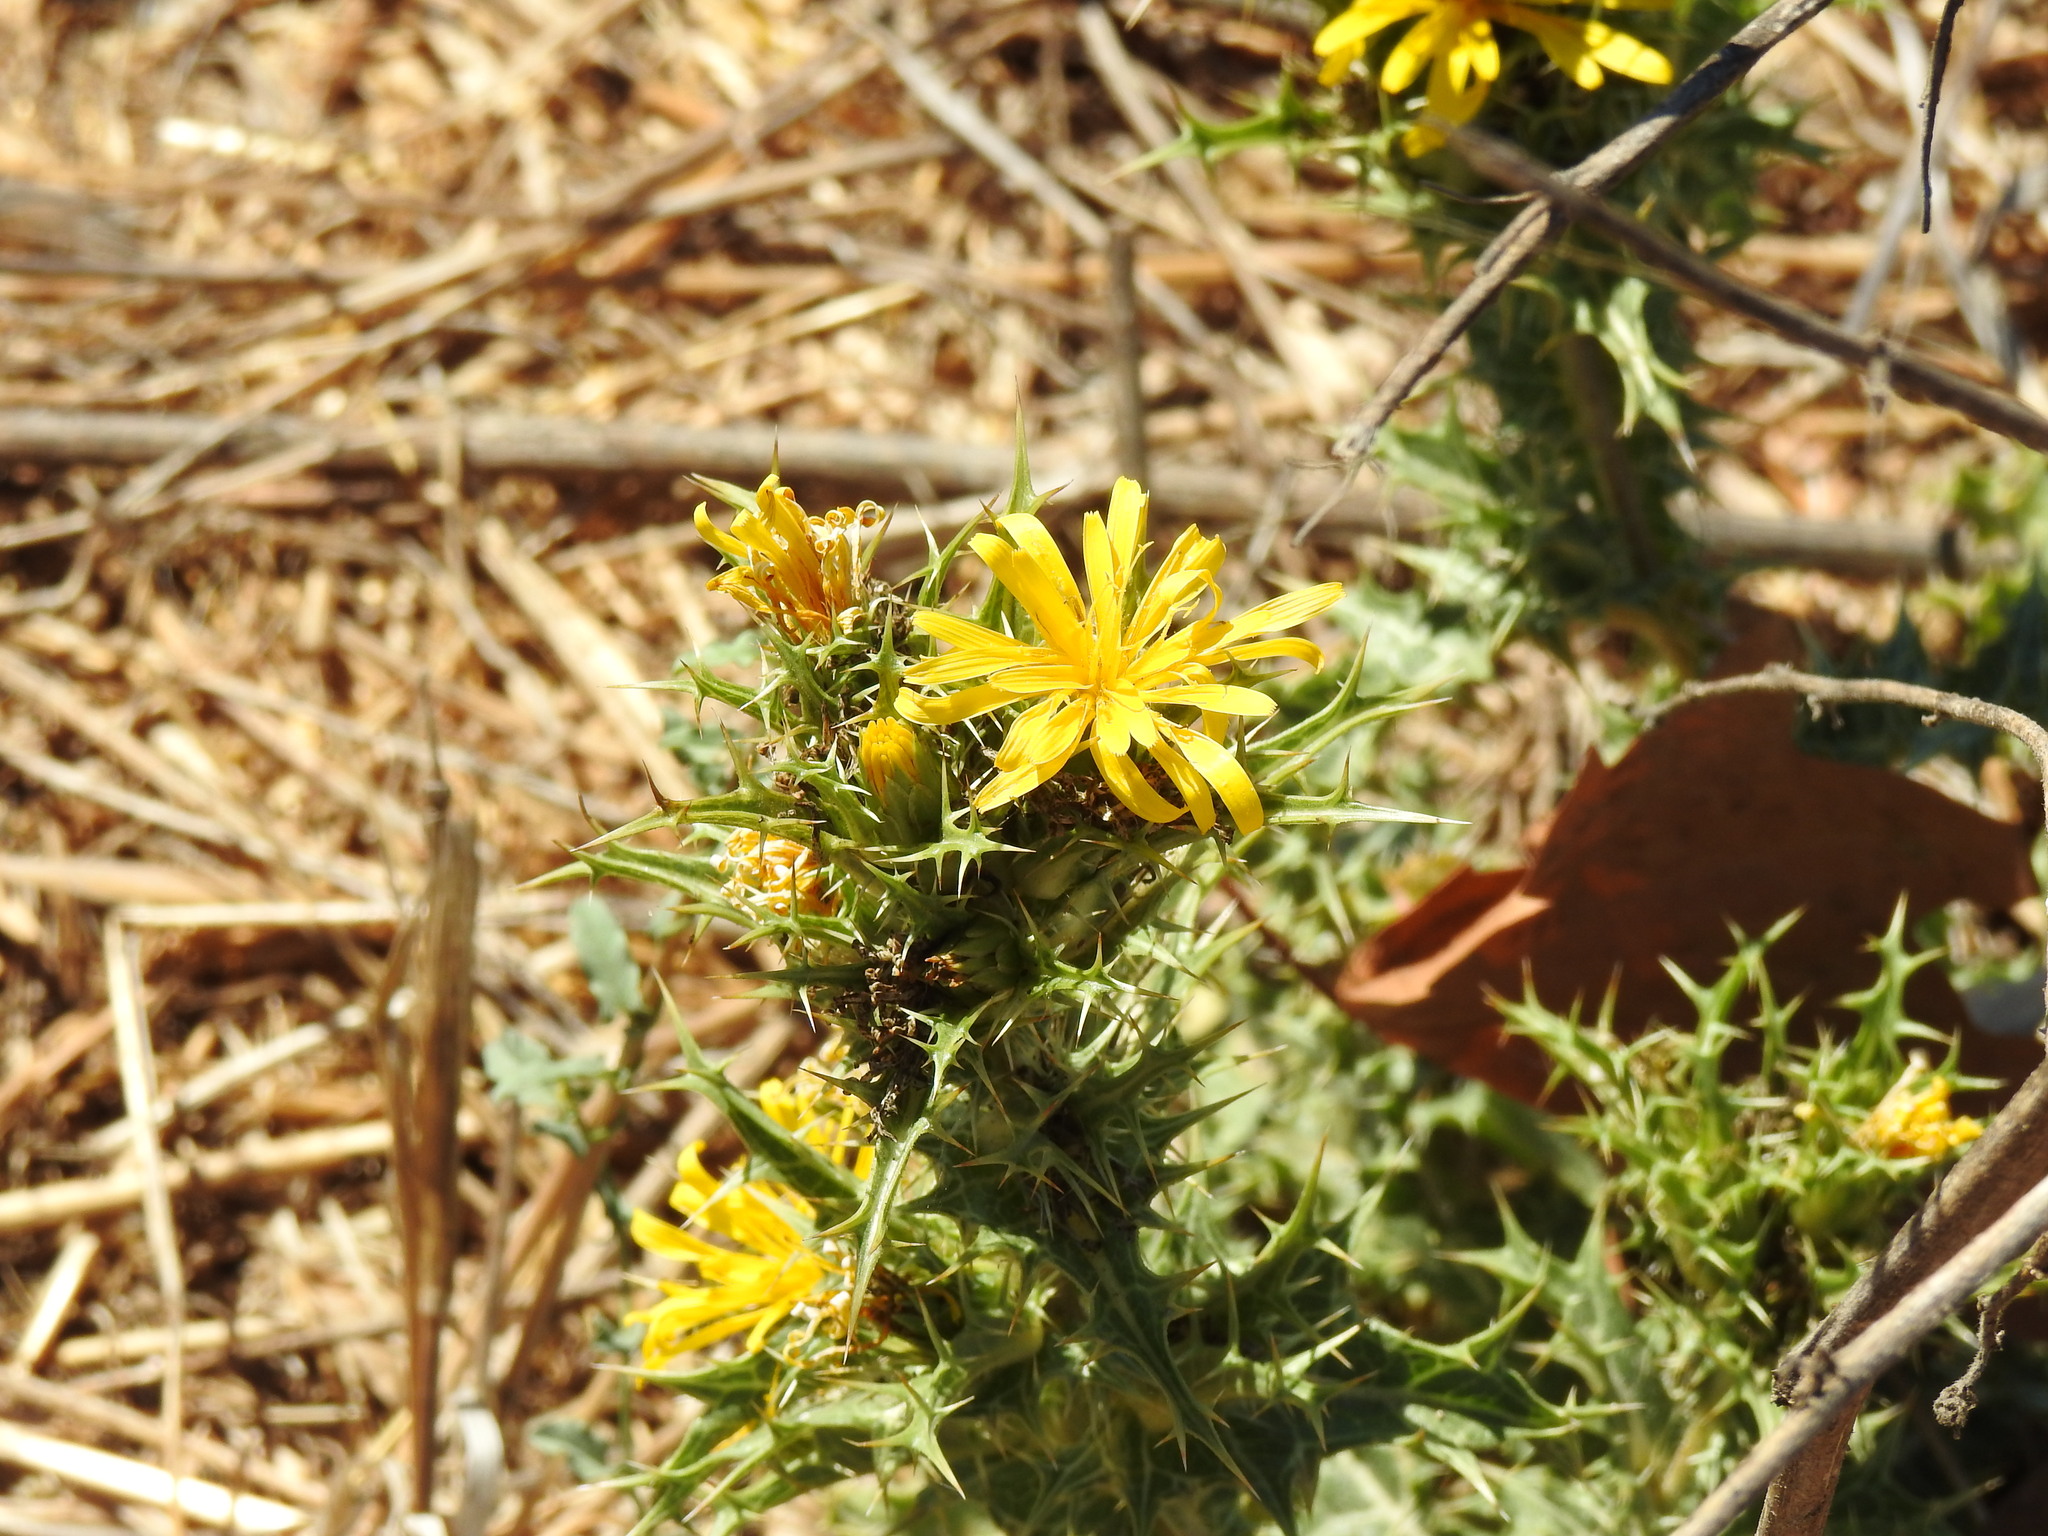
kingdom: Plantae
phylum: Tracheophyta
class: Magnoliopsida
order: Asterales
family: Asteraceae
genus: Scolymus
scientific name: Scolymus hispanicus
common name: Golden thistle
